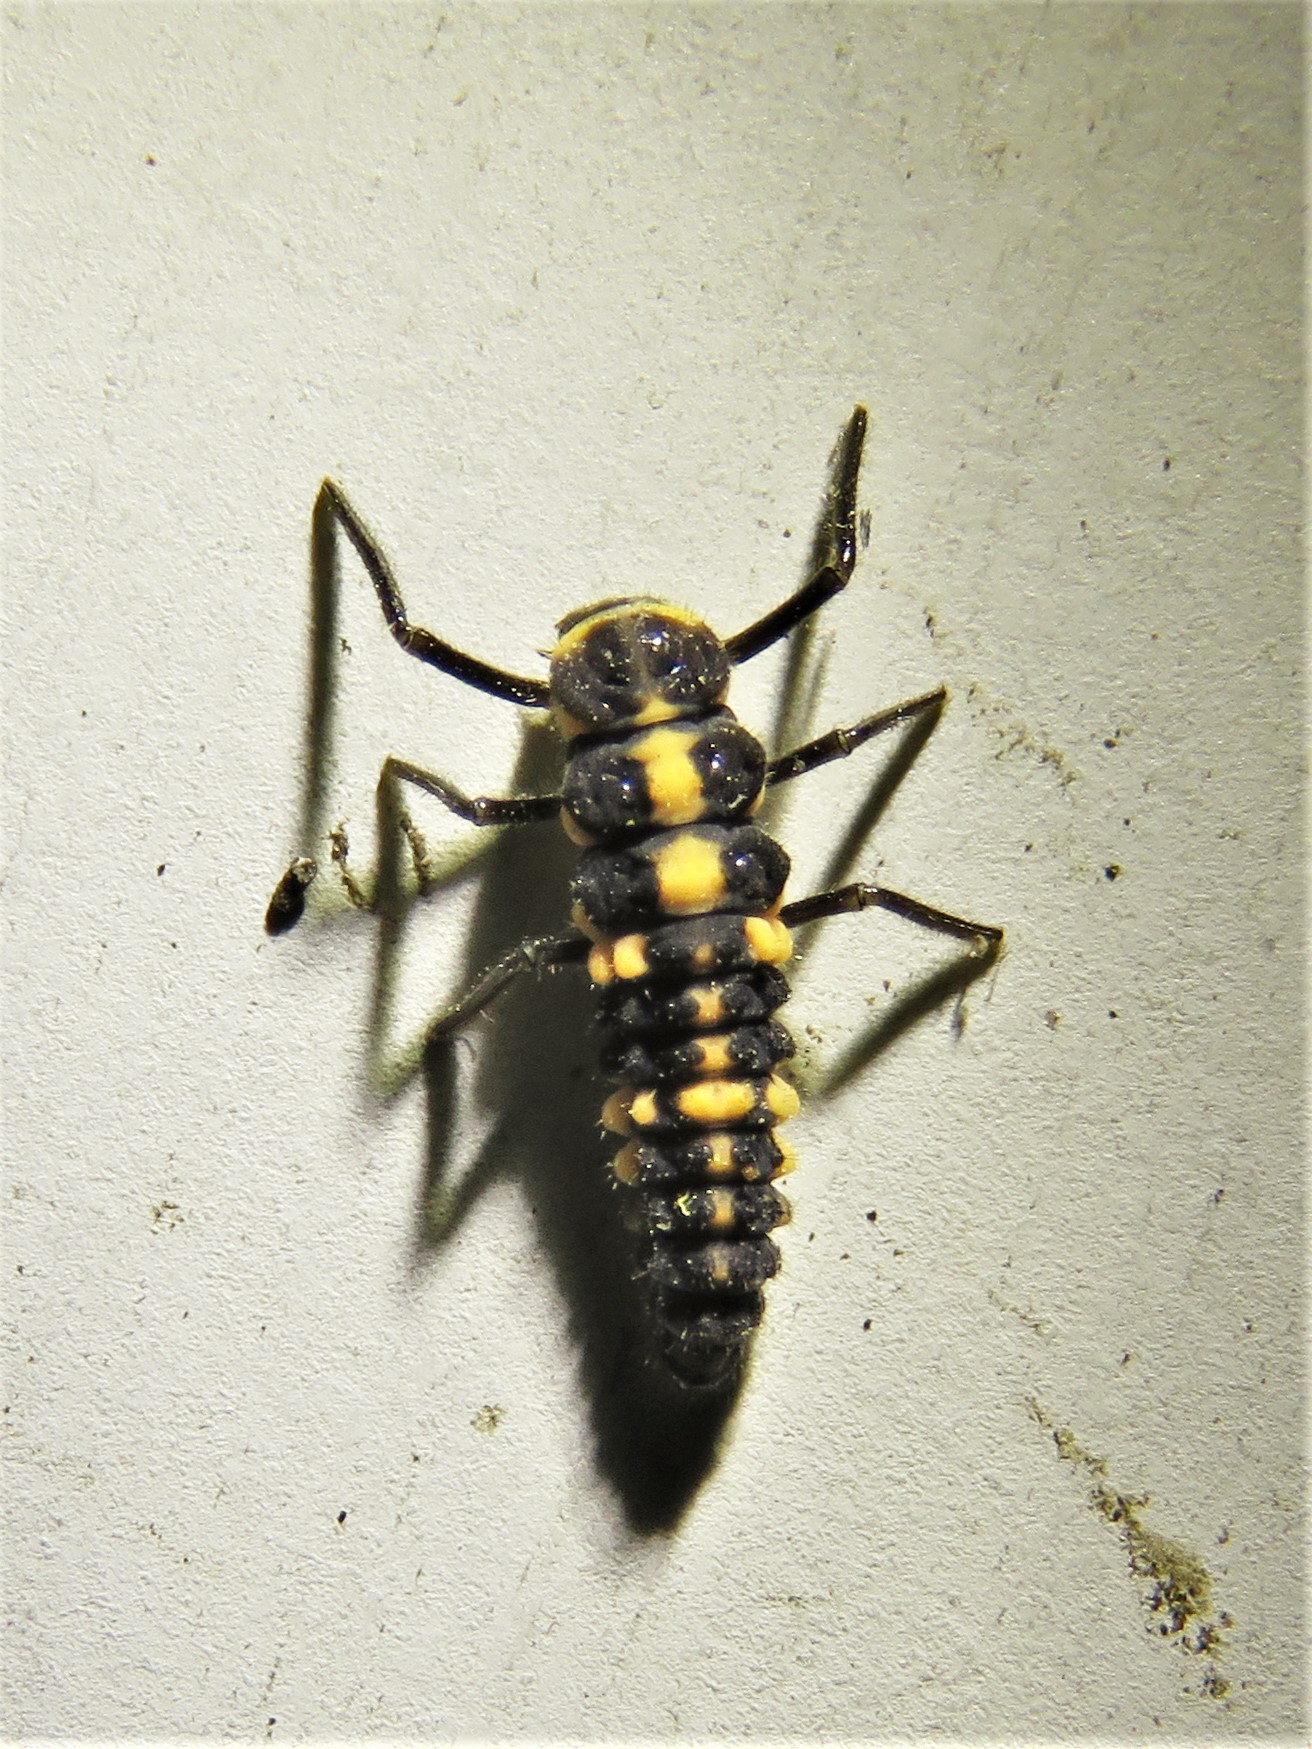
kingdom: Animalia
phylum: Arthropoda
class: Insecta
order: Coleoptera
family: Coccinellidae
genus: Cycloneda
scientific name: Cycloneda sanguinea
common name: Ladybird beetle
